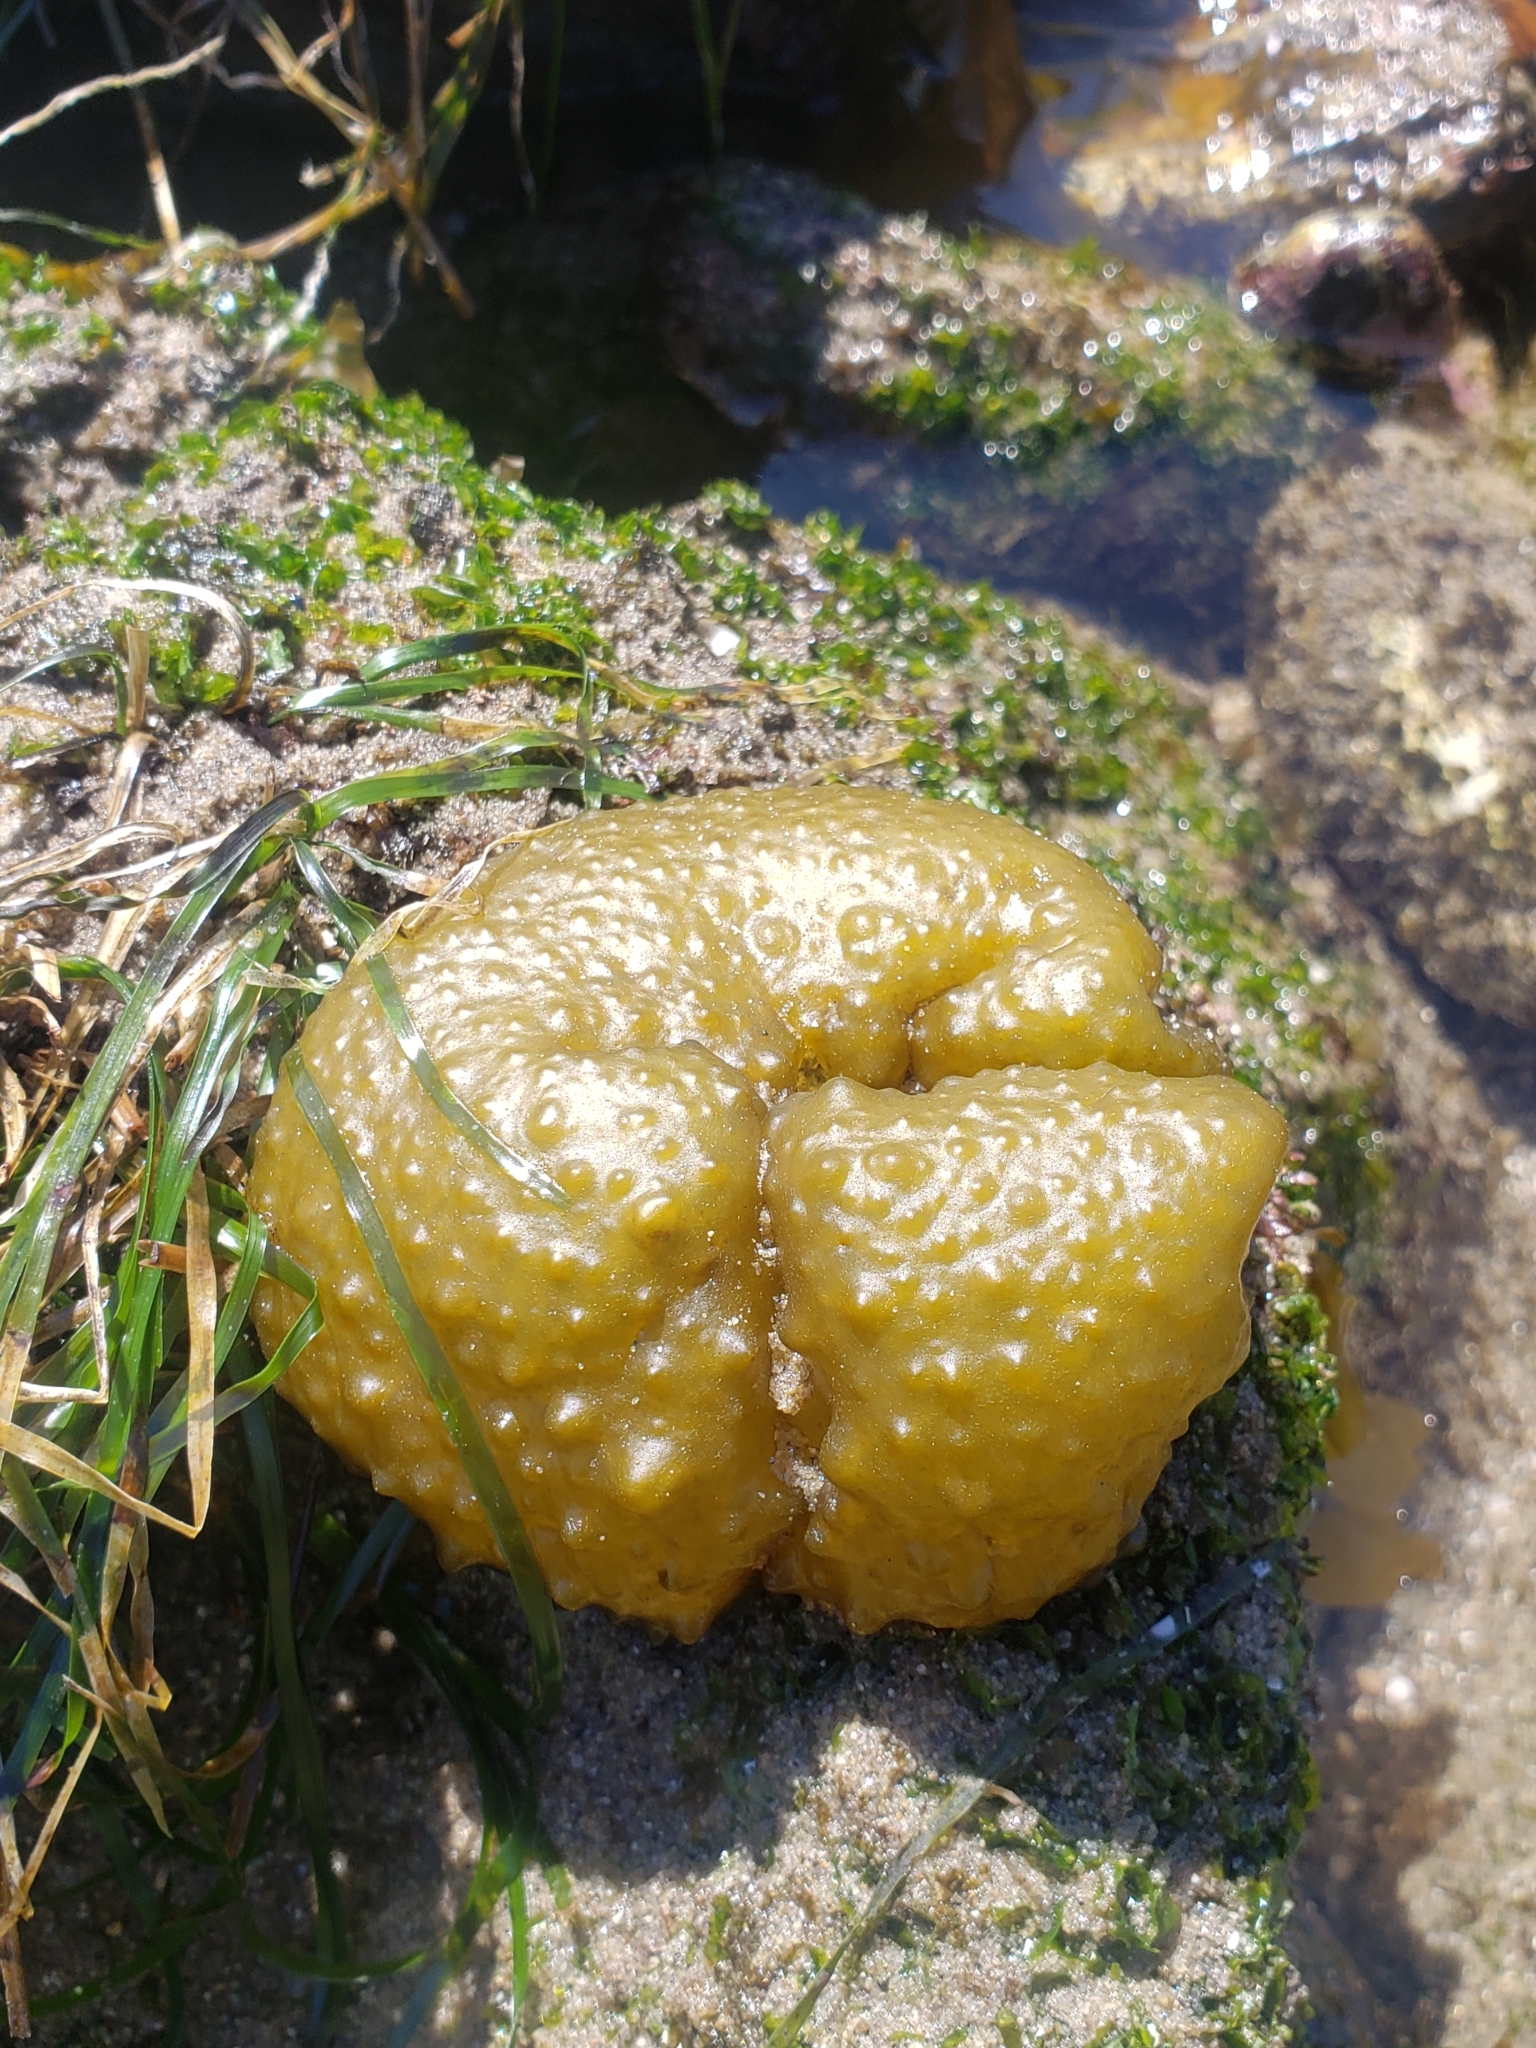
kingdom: Chromista
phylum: Ochrophyta
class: Phaeophyceae
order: Scytosiphonales
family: Scytosiphonaceae
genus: Colpomenia
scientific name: Colpomenia
